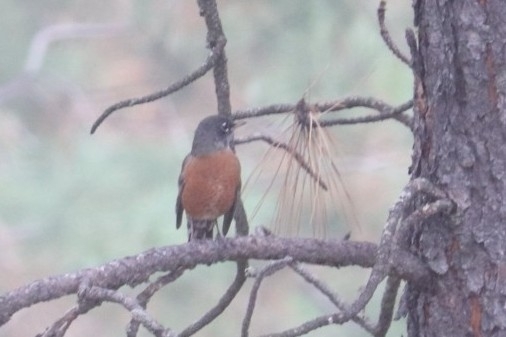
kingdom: Animalia
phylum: Chordata
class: Aves
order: Passeriformes
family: Turdidae
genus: Turdus
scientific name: Turdus migratorius
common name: American robin
